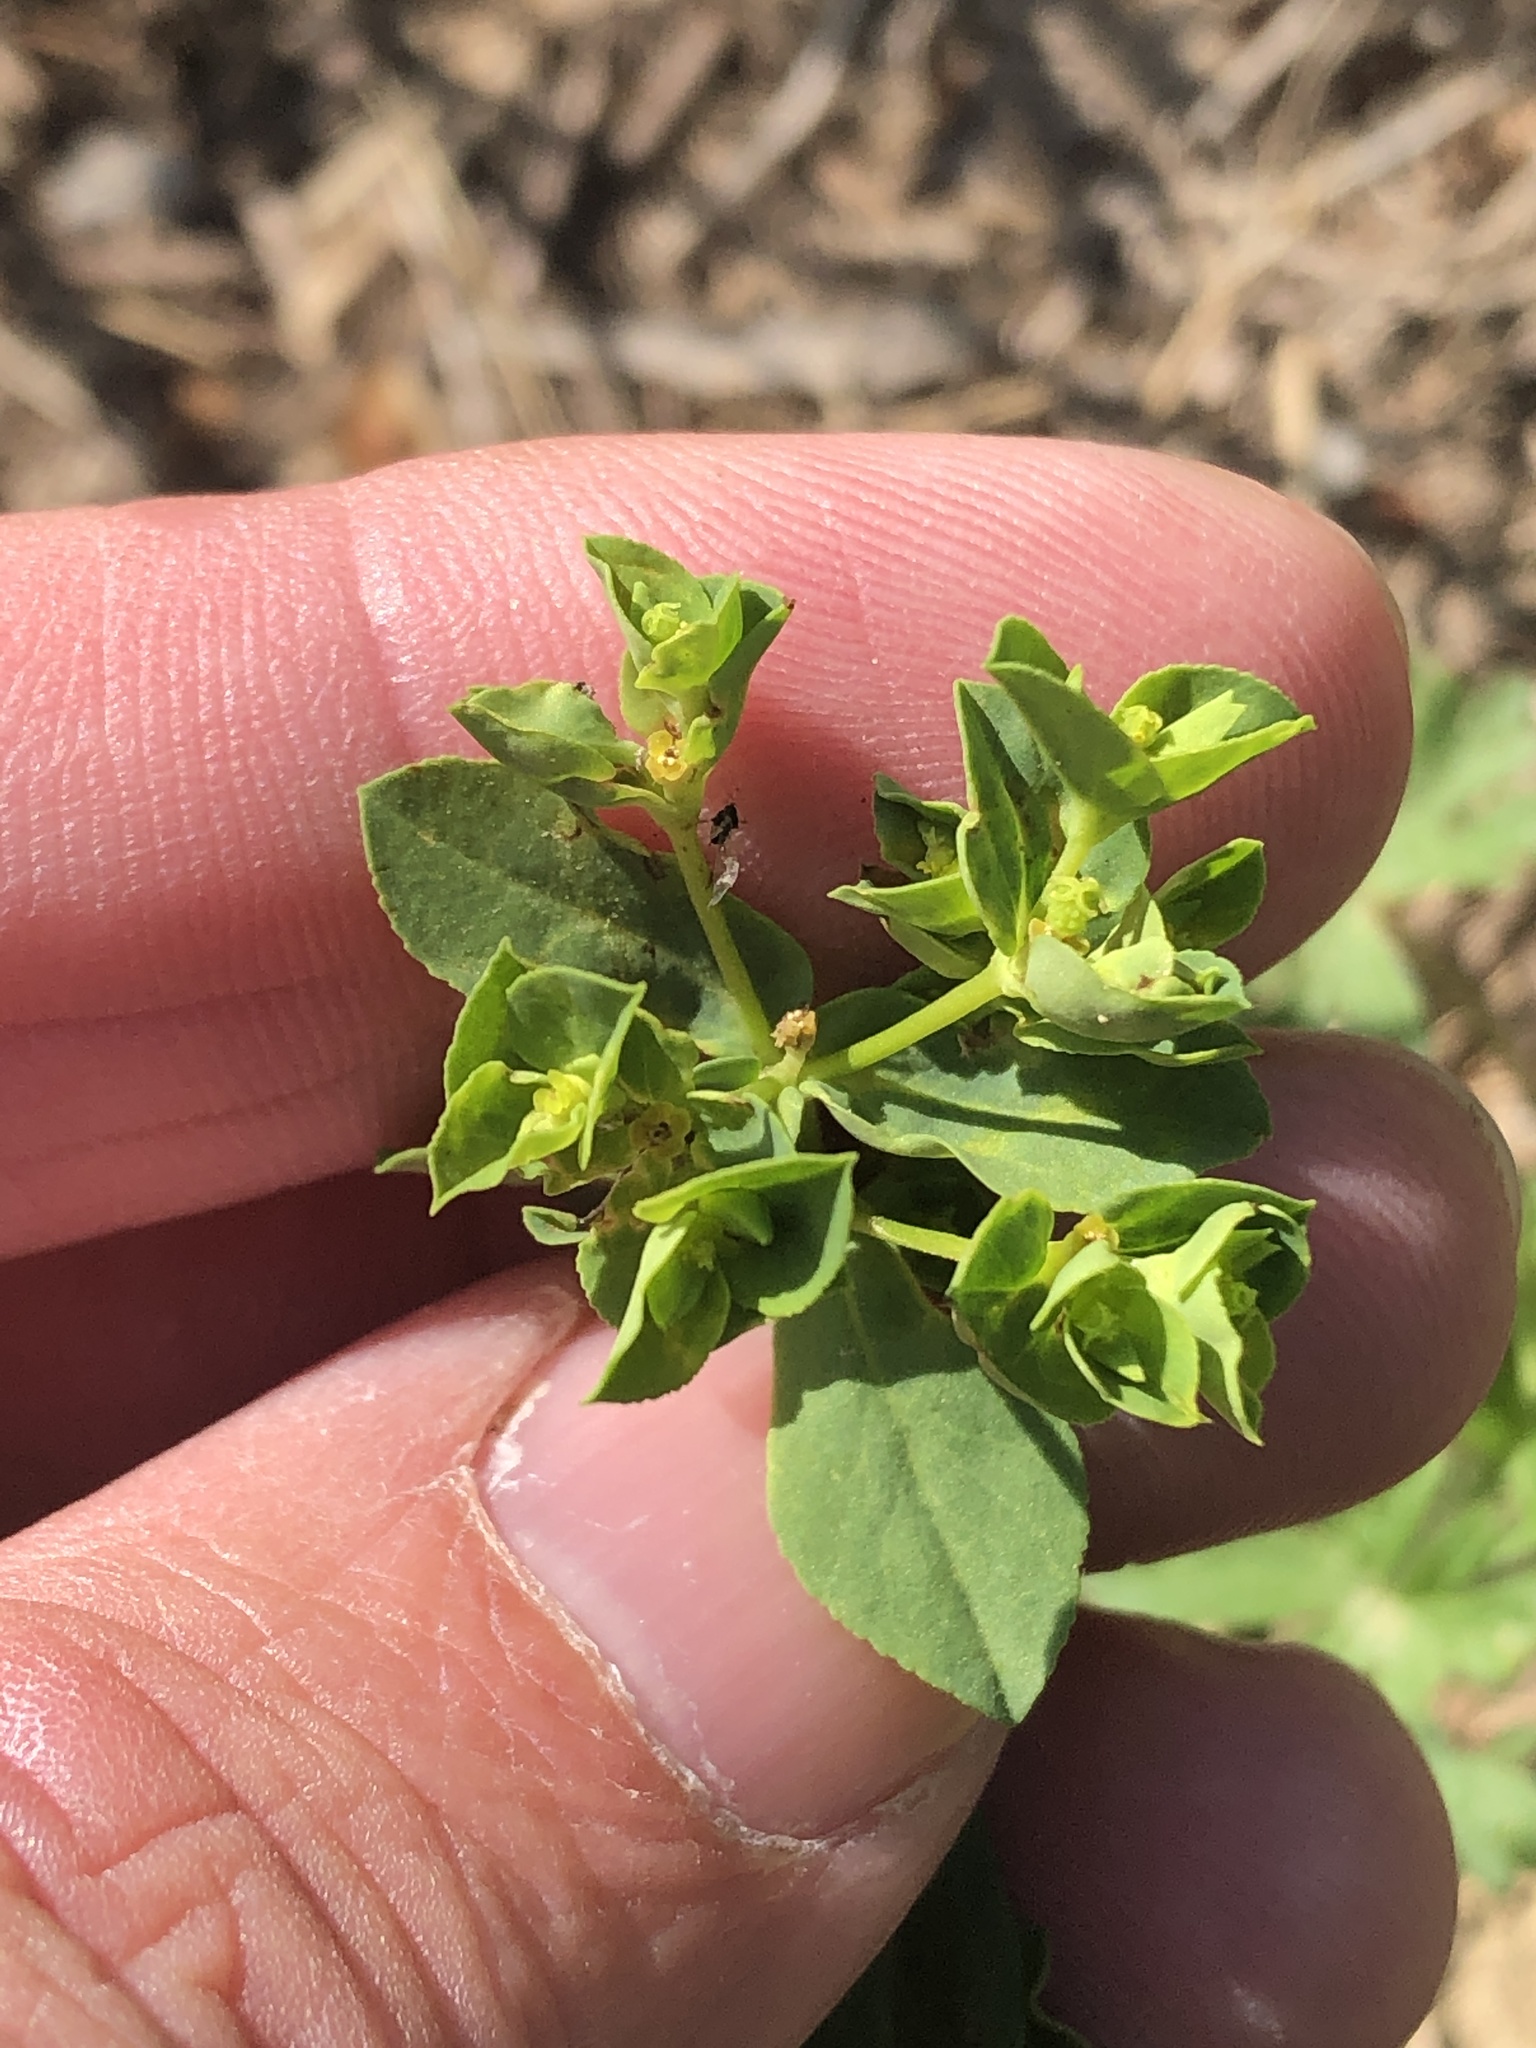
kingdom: Plantae
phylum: Tracheophyta
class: Magnoliopsida
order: Malpighiales
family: Euphorbiaceae
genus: Euphorbia
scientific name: Euphorbia spathulata
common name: Blunt spurge
